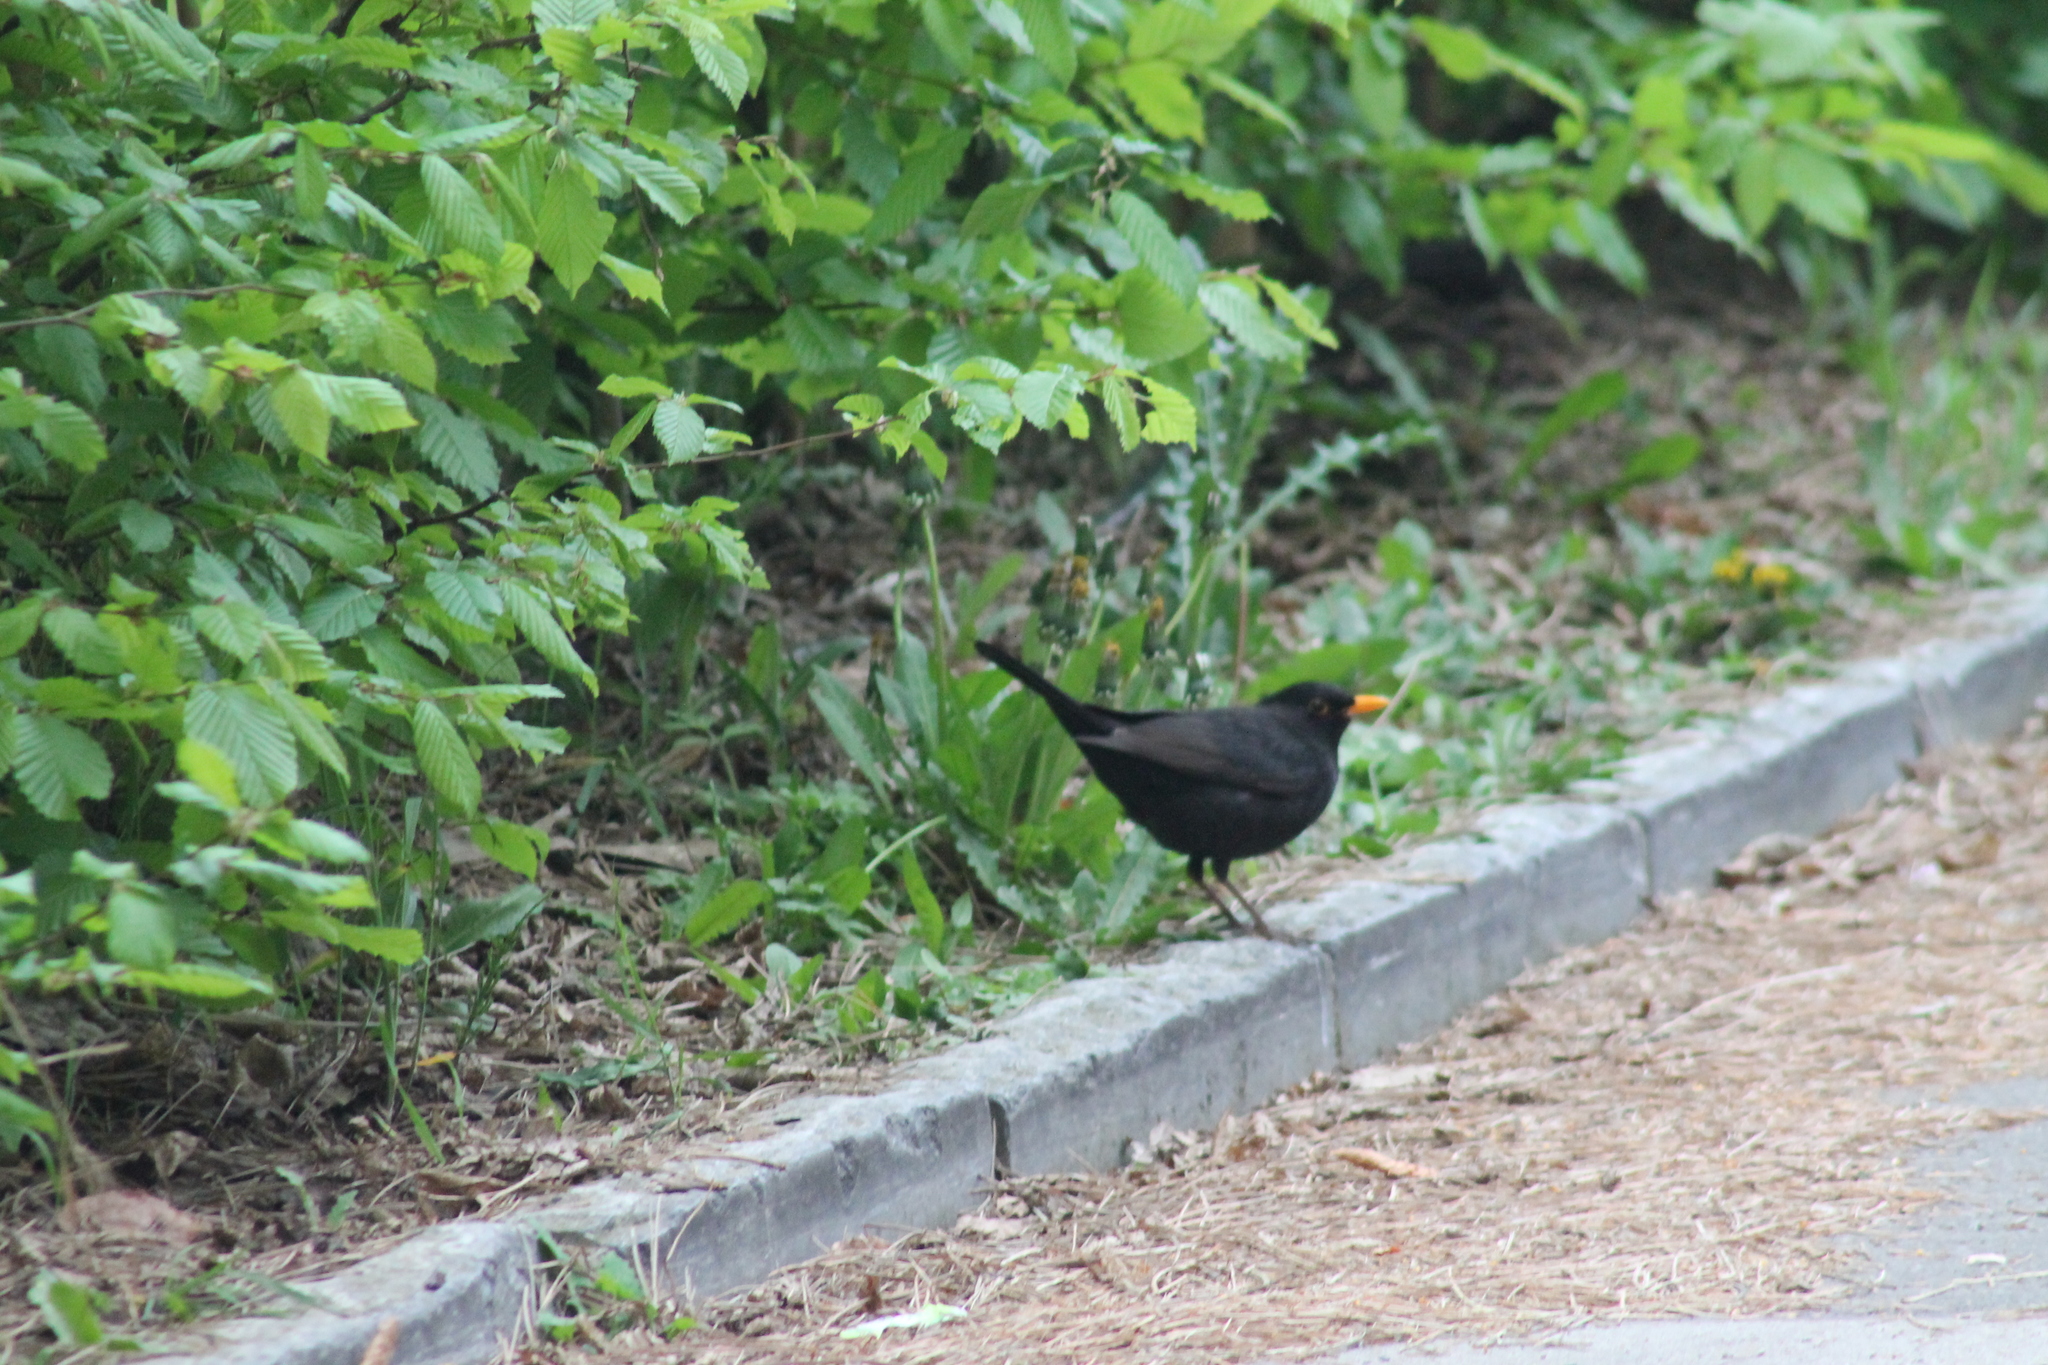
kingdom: Animalia
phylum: Chordata
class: Aves
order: Passeriformes
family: Turdidae
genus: Turdus
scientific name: Turdus merula
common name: Common blackbird
